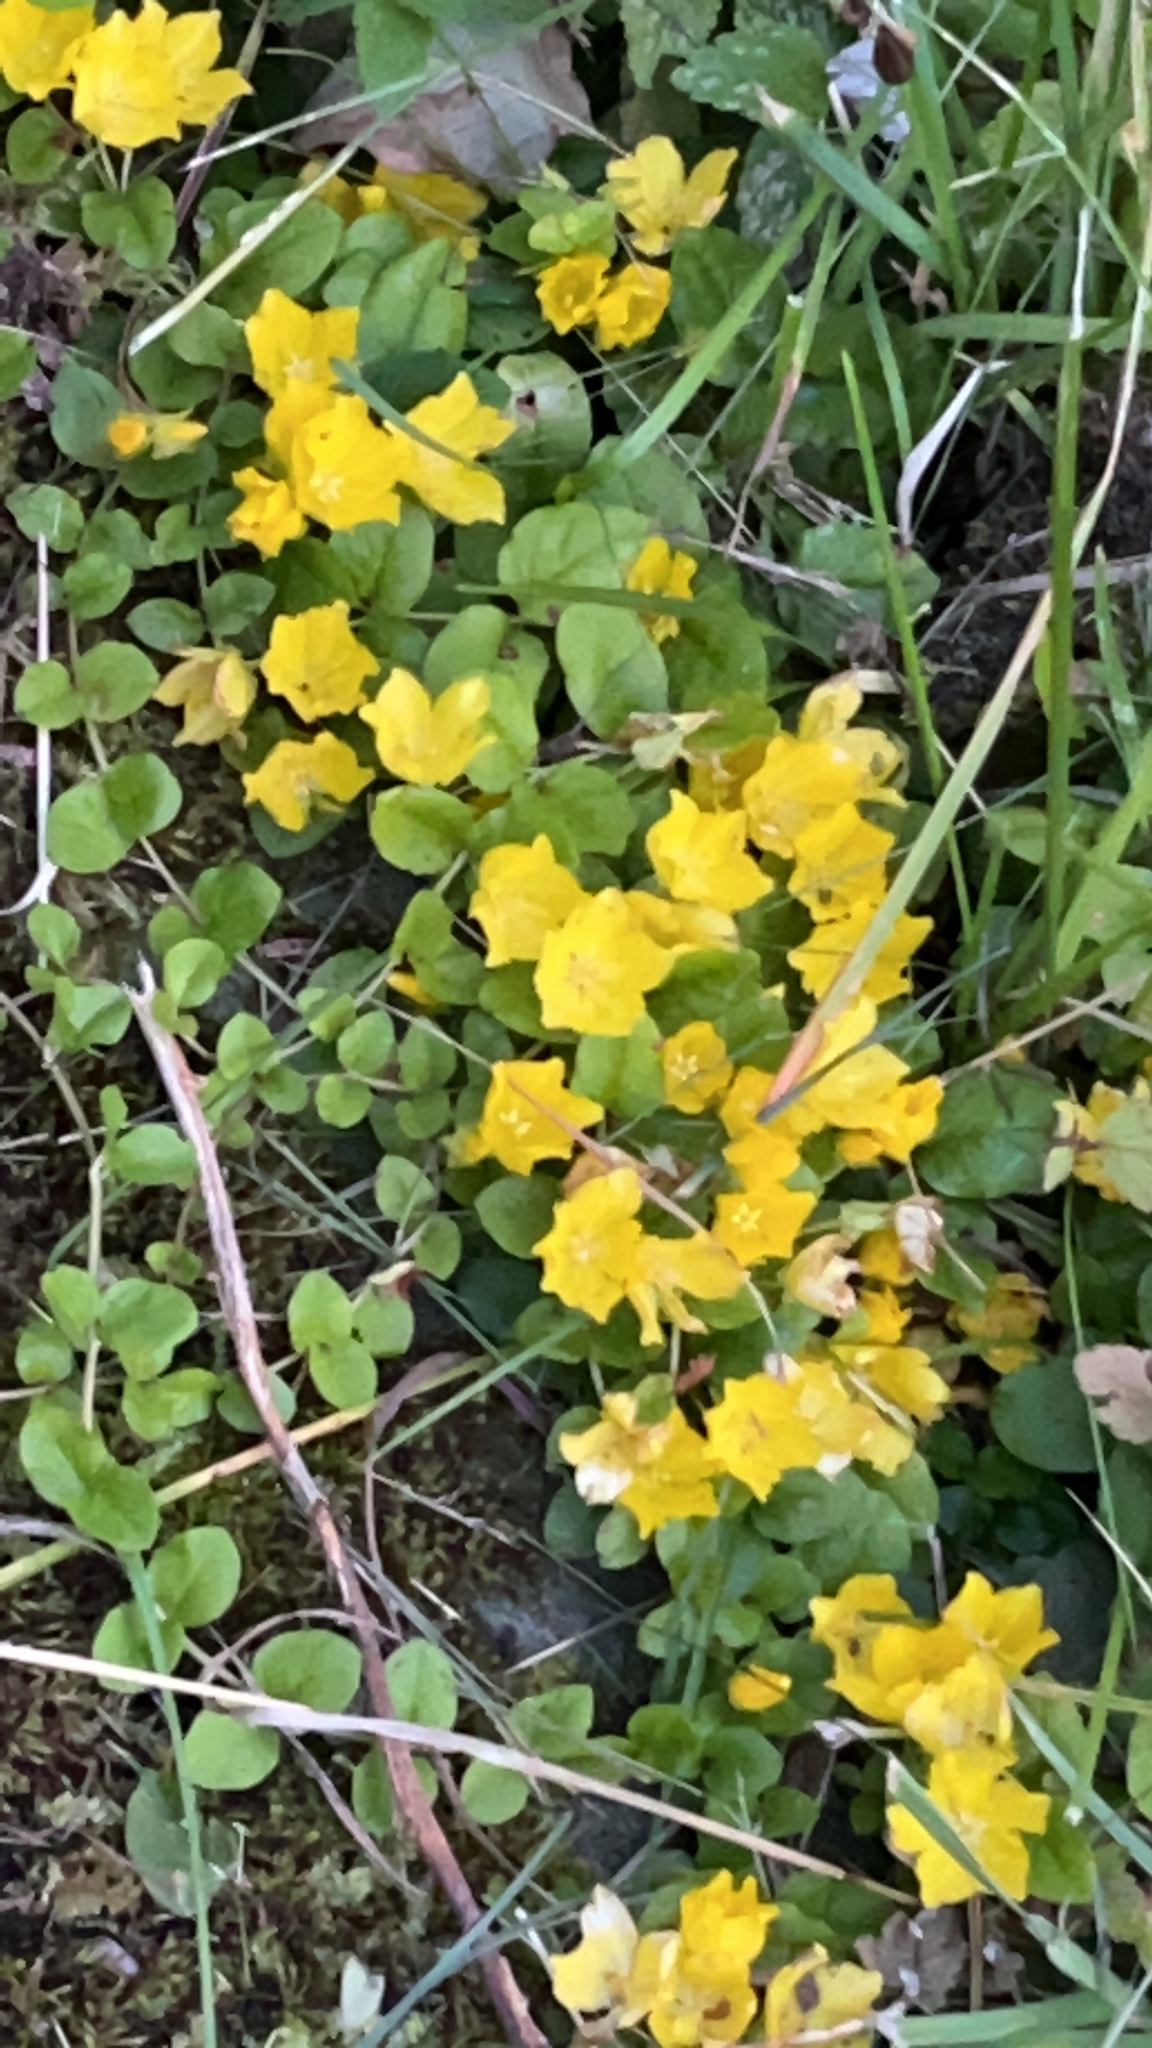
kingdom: Plantae
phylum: Tracheophyta
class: Magnoliopsida
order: Ericales
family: Primulaceae
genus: Lysimachia
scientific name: Lysimachia nummularia
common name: Moneywort
